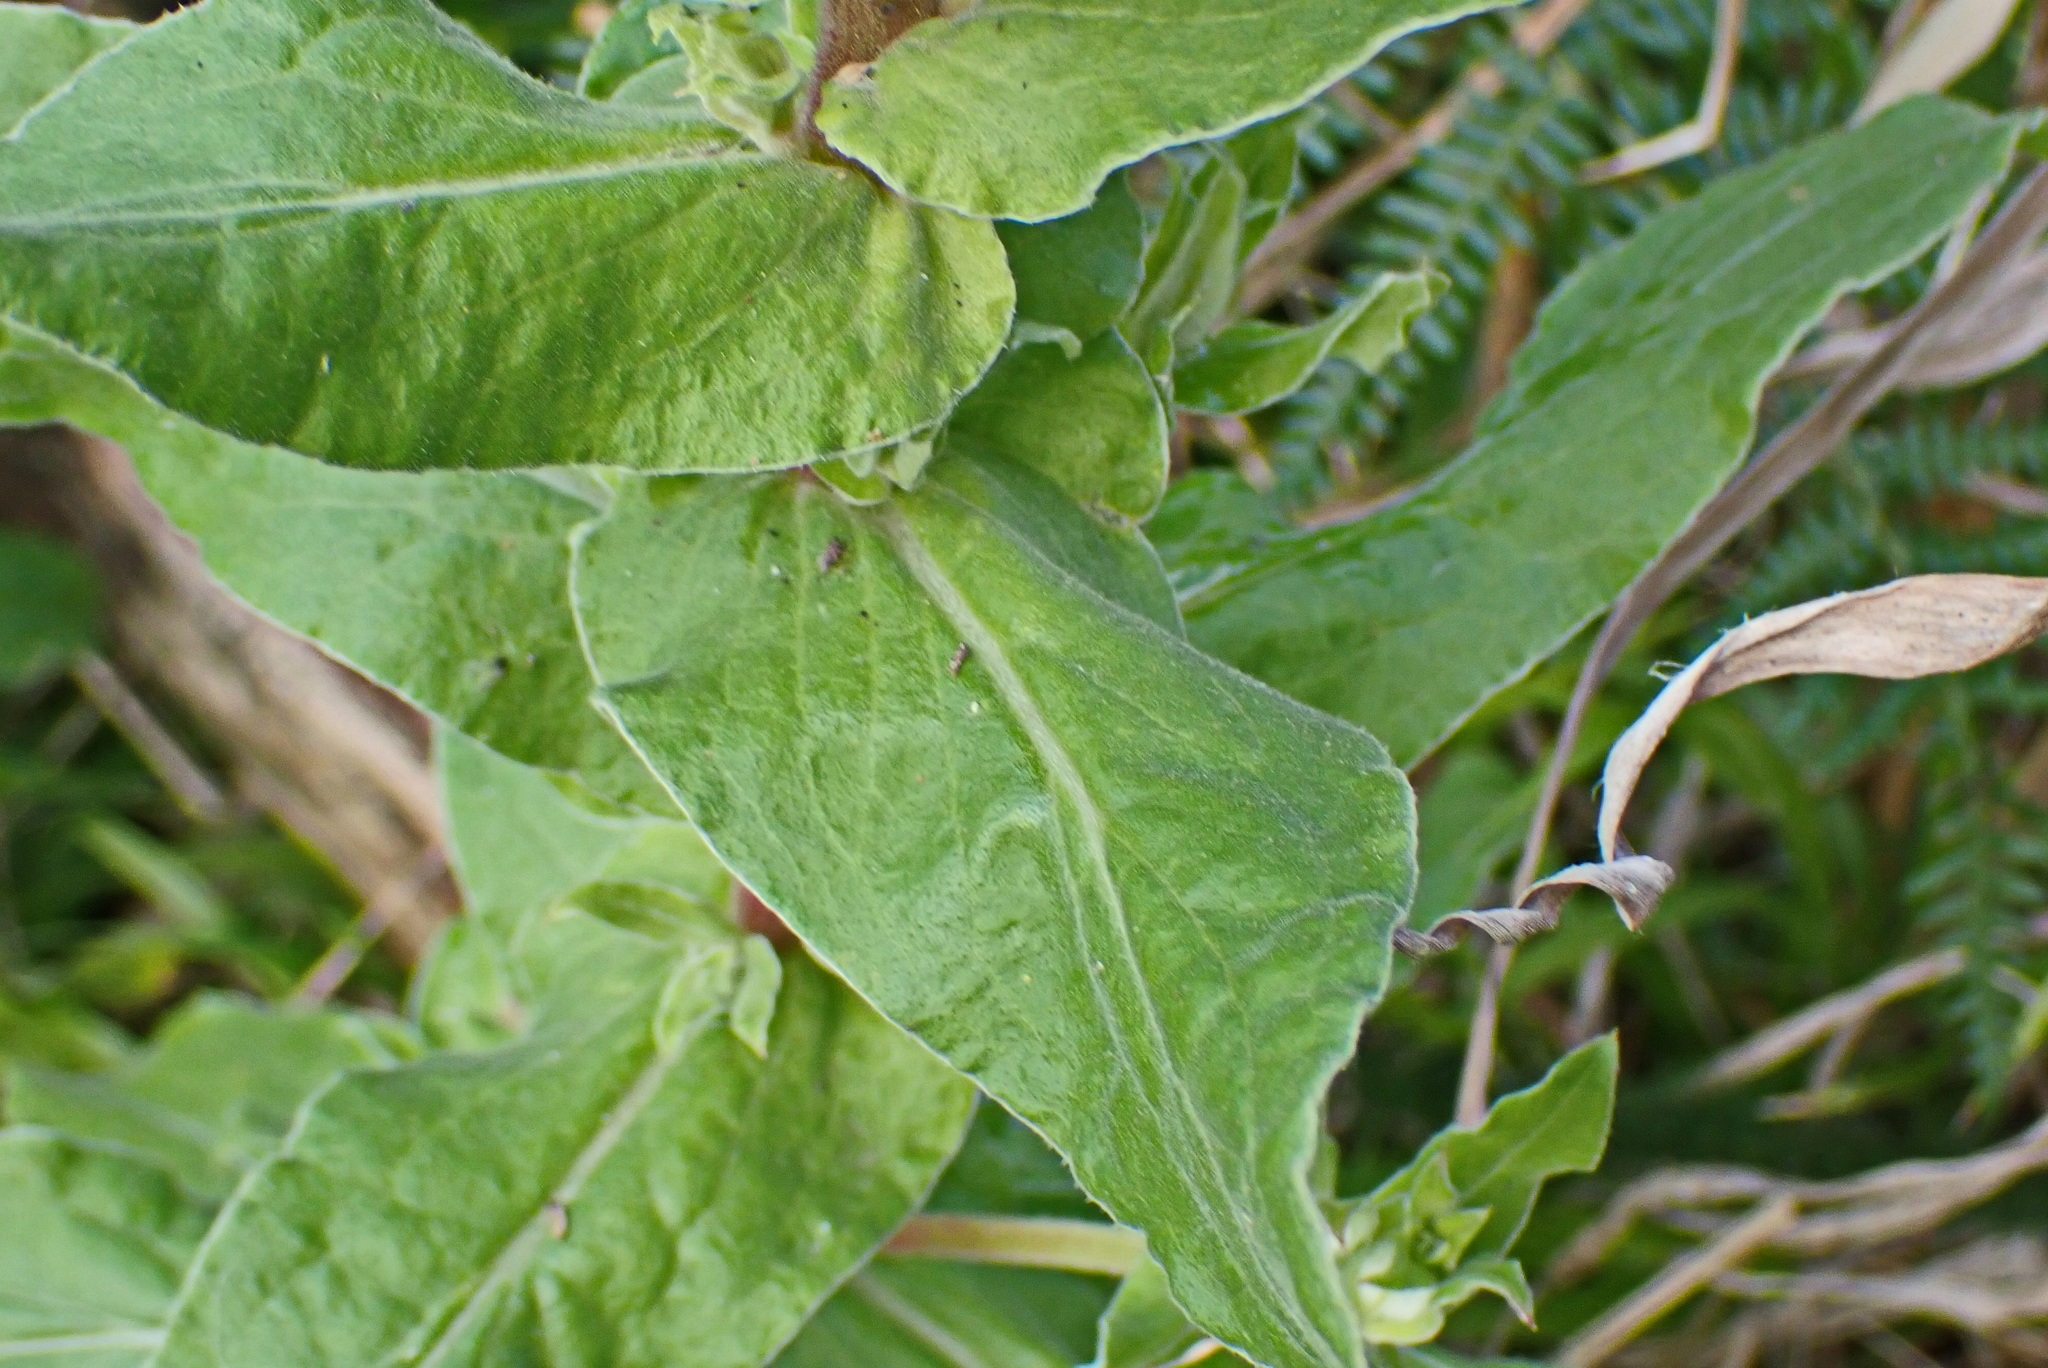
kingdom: Plantae
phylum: Tracheophyta
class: Magnoliopsida
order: Asterales
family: Asteraceae
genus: Helichrysum
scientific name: Helichrysum foetidum
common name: Stinking everlasting
